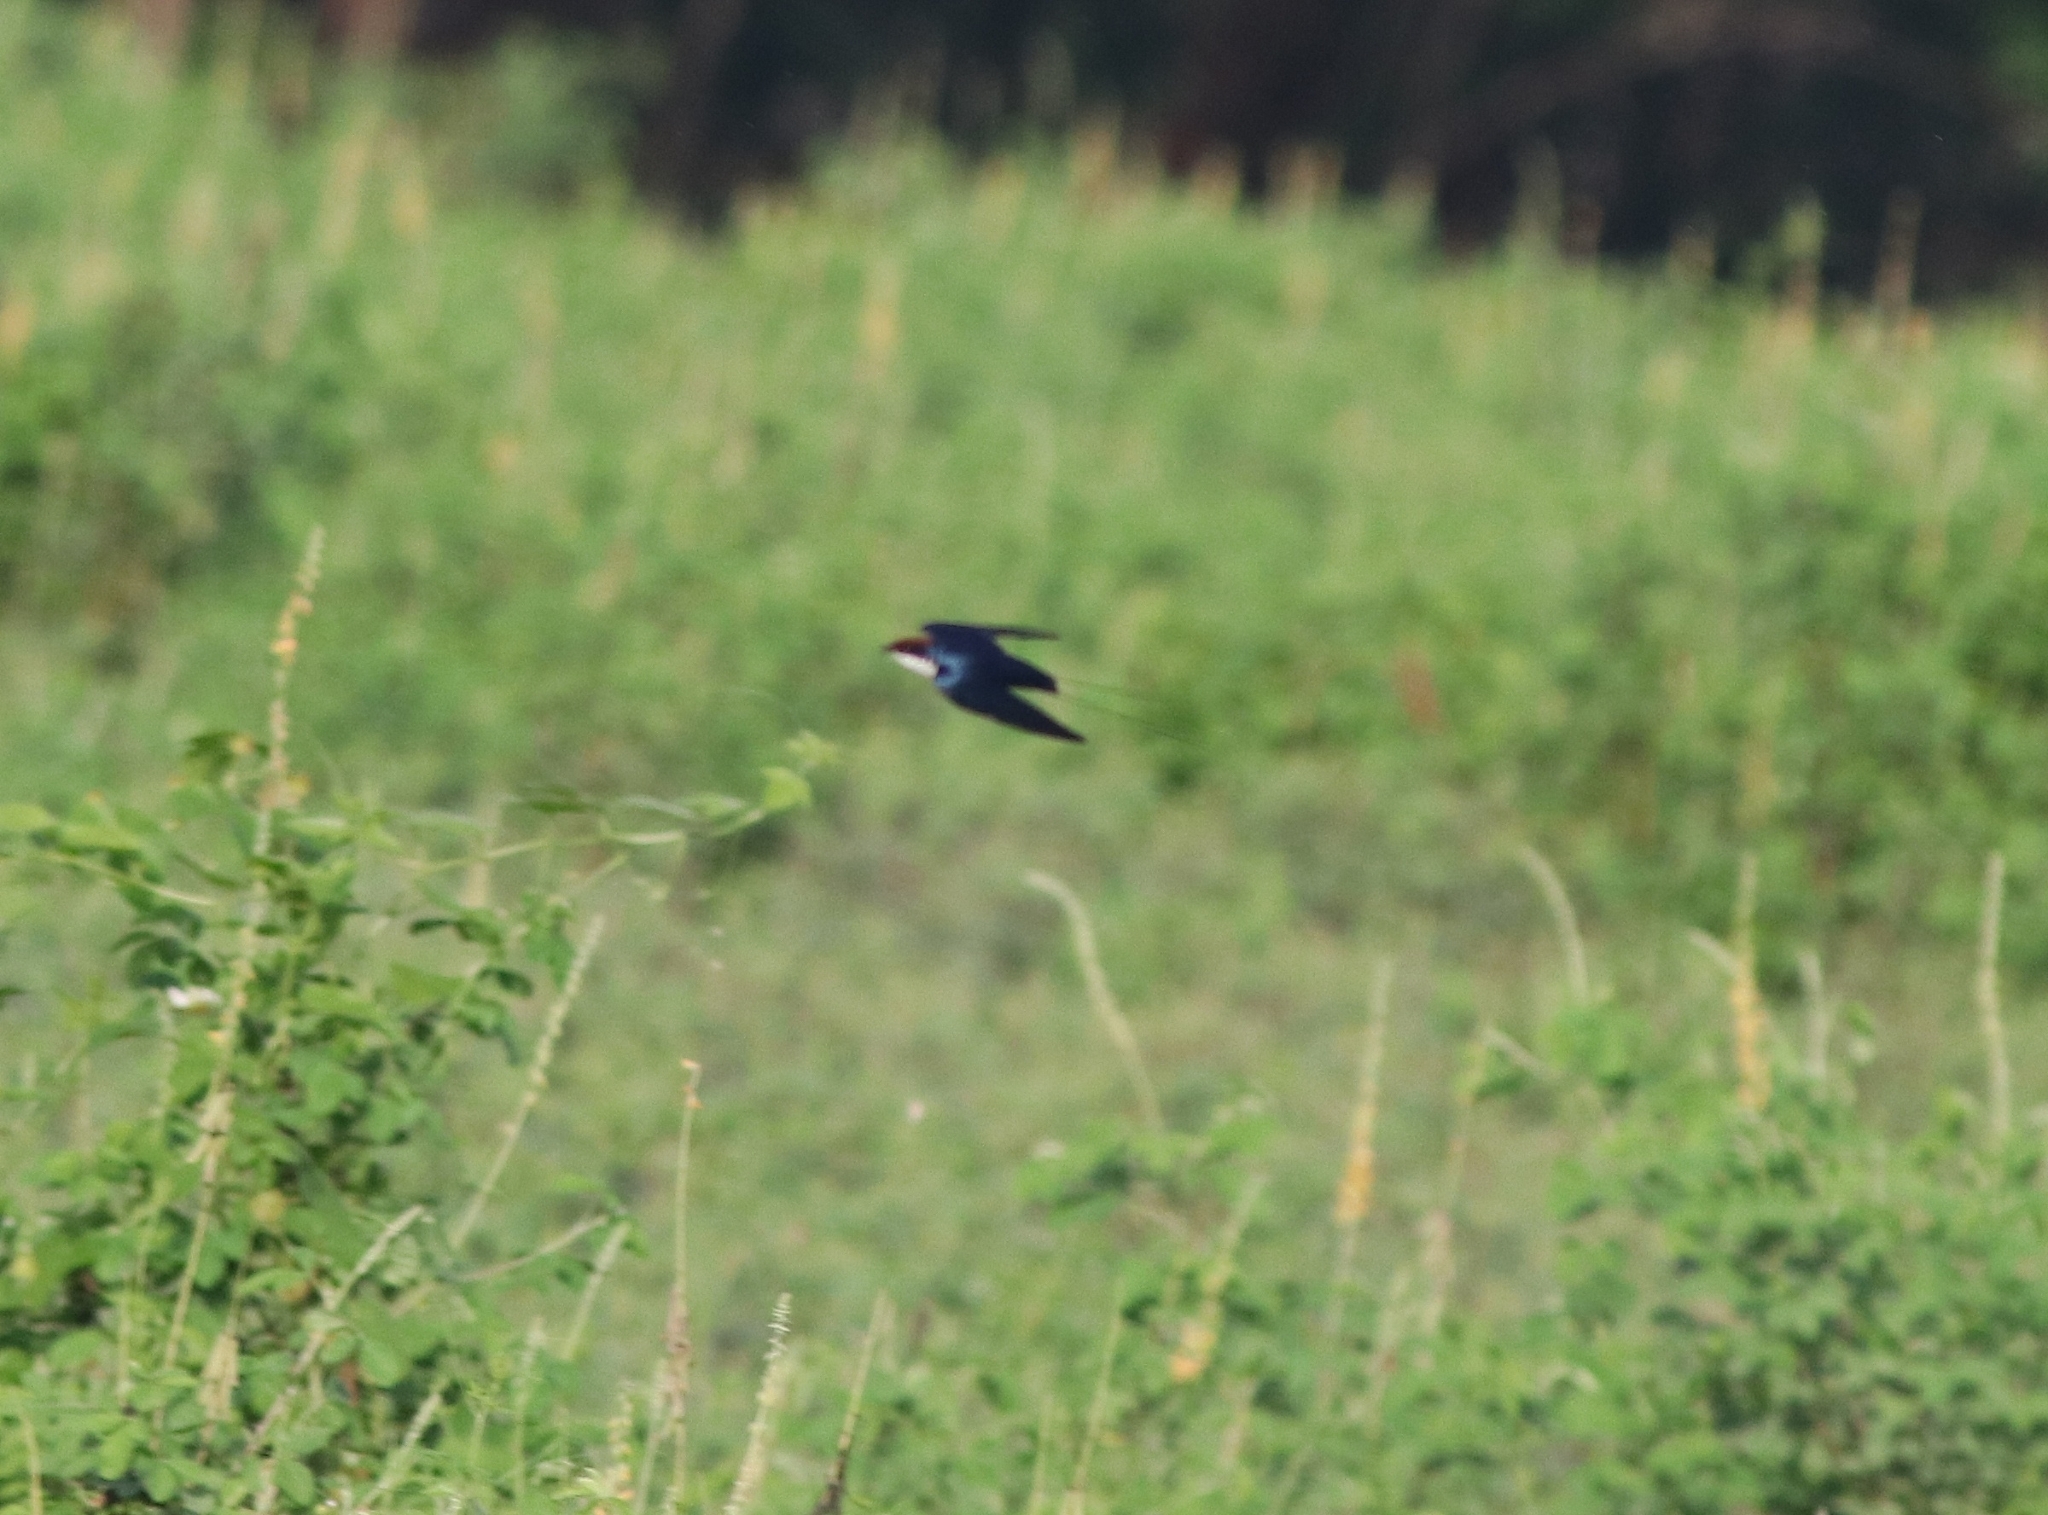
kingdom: Animalia
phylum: Chordata
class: Aves
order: Passeriformes
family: Hirundinidae
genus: Hirundo
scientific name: Hirundo smithii
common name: Wire-tailed swallow
